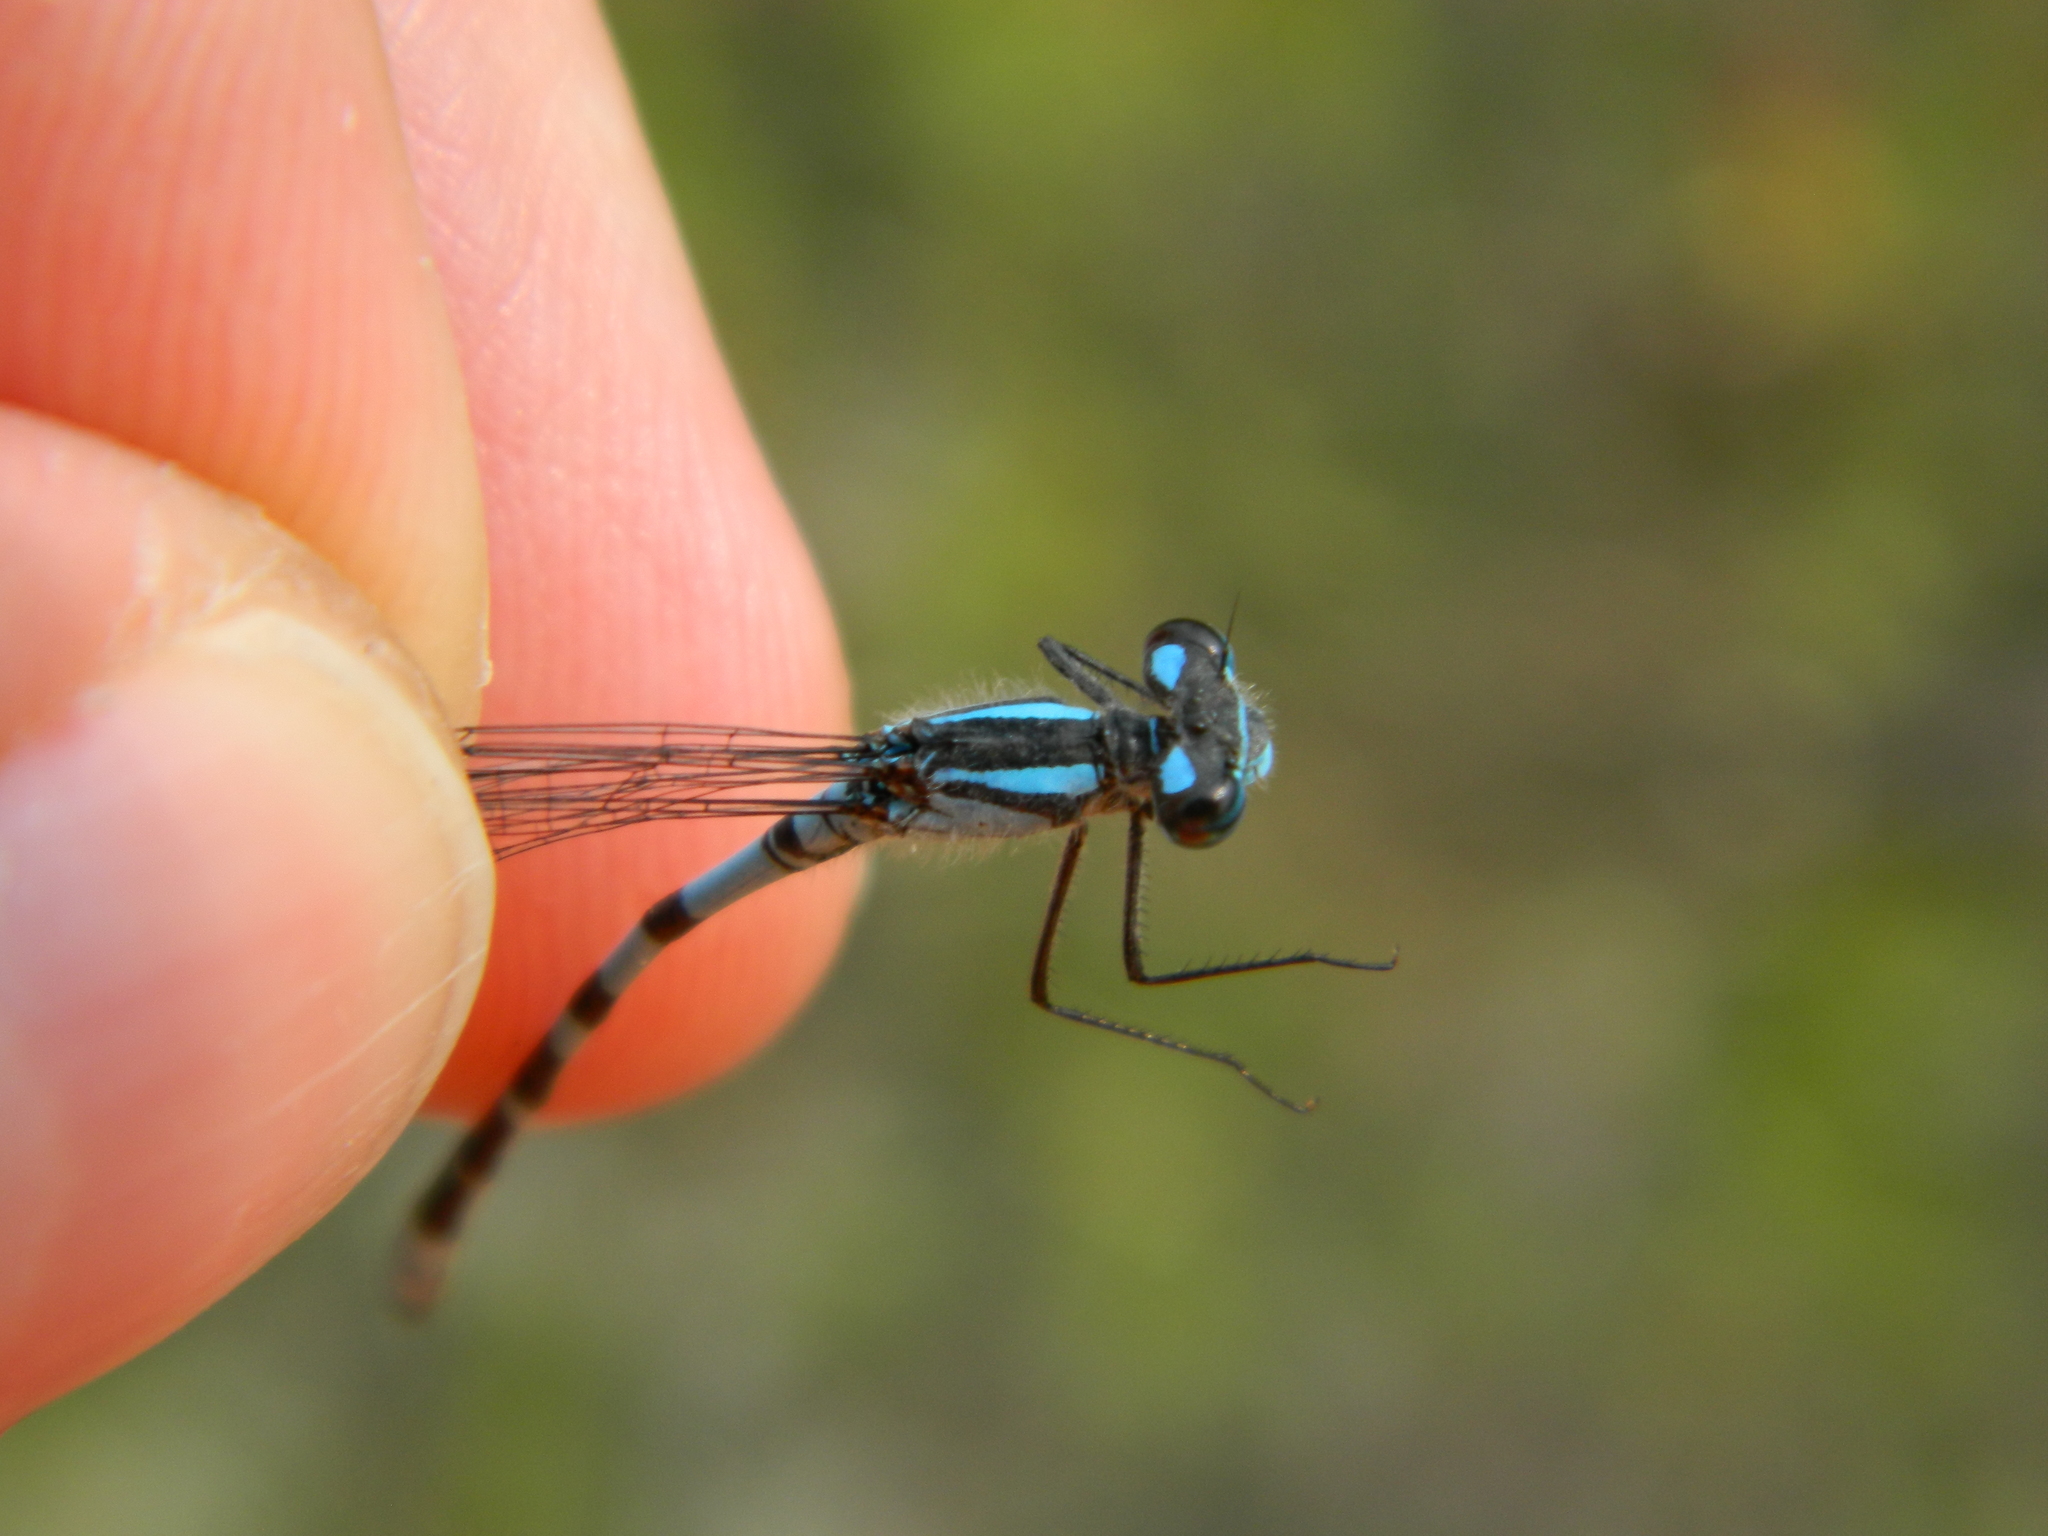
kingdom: Animalia
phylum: Arthropoda
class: Insecta
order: Odonata
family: Coenagrionidae
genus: Enallagma
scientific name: Enallagma annexum
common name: Northern bluet
